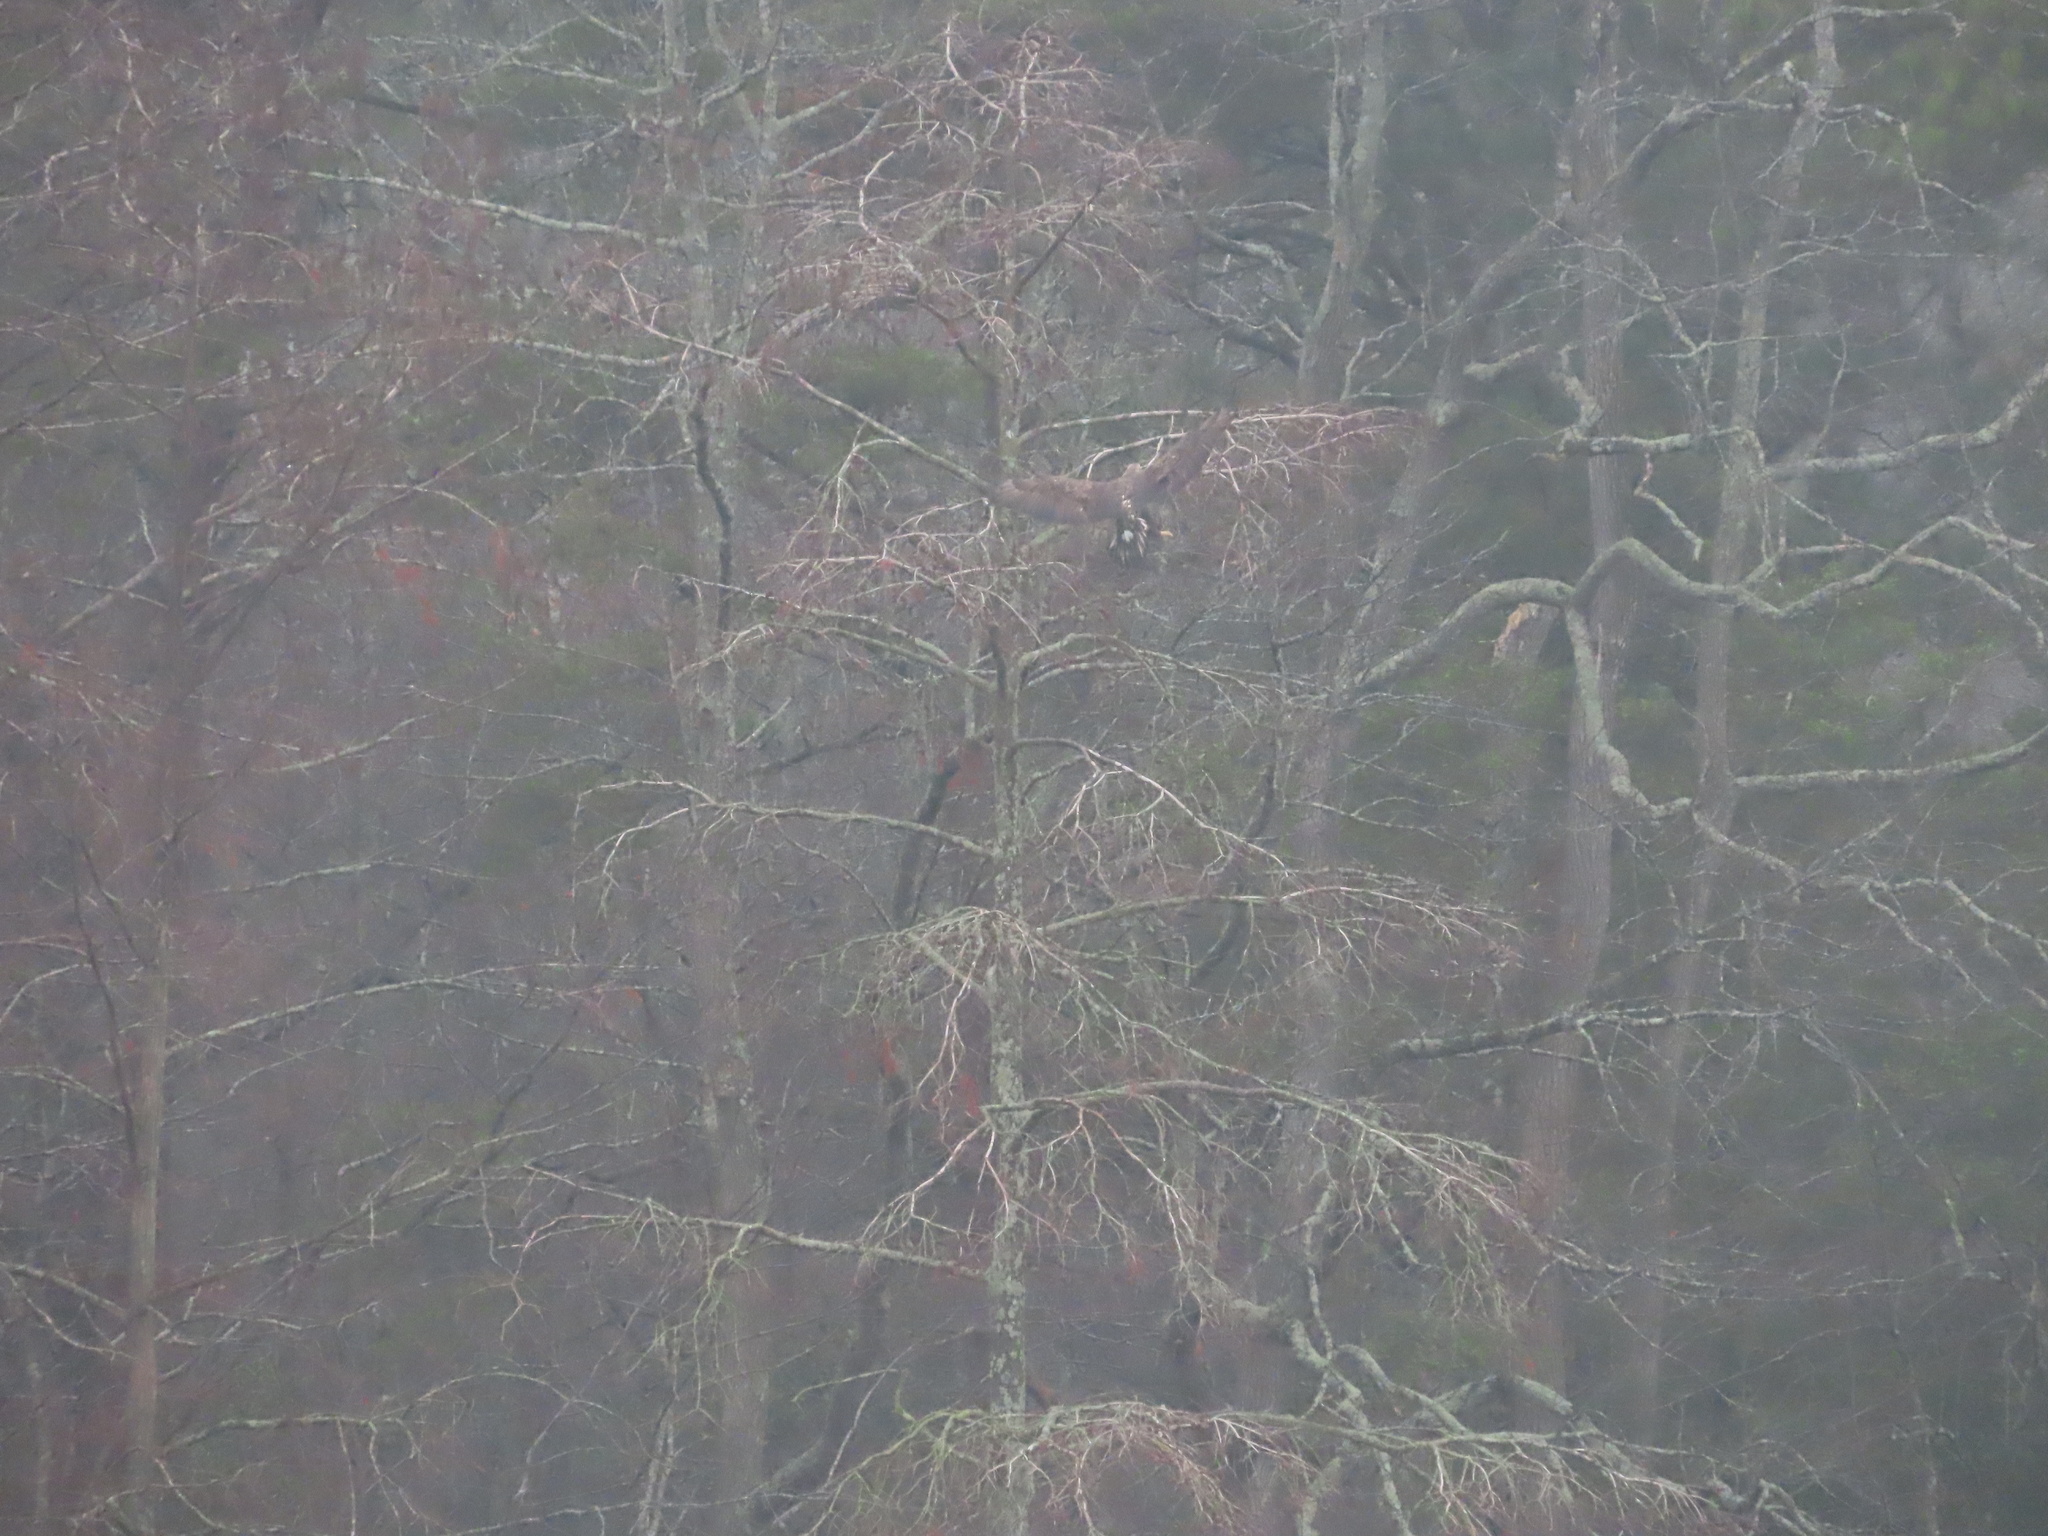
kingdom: Animalia
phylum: Chordata
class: Aves
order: Accipitriformes
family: Accipitridae
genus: Haliaeetus
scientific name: Haliaeetus leucocephalus
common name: Bald eagle
